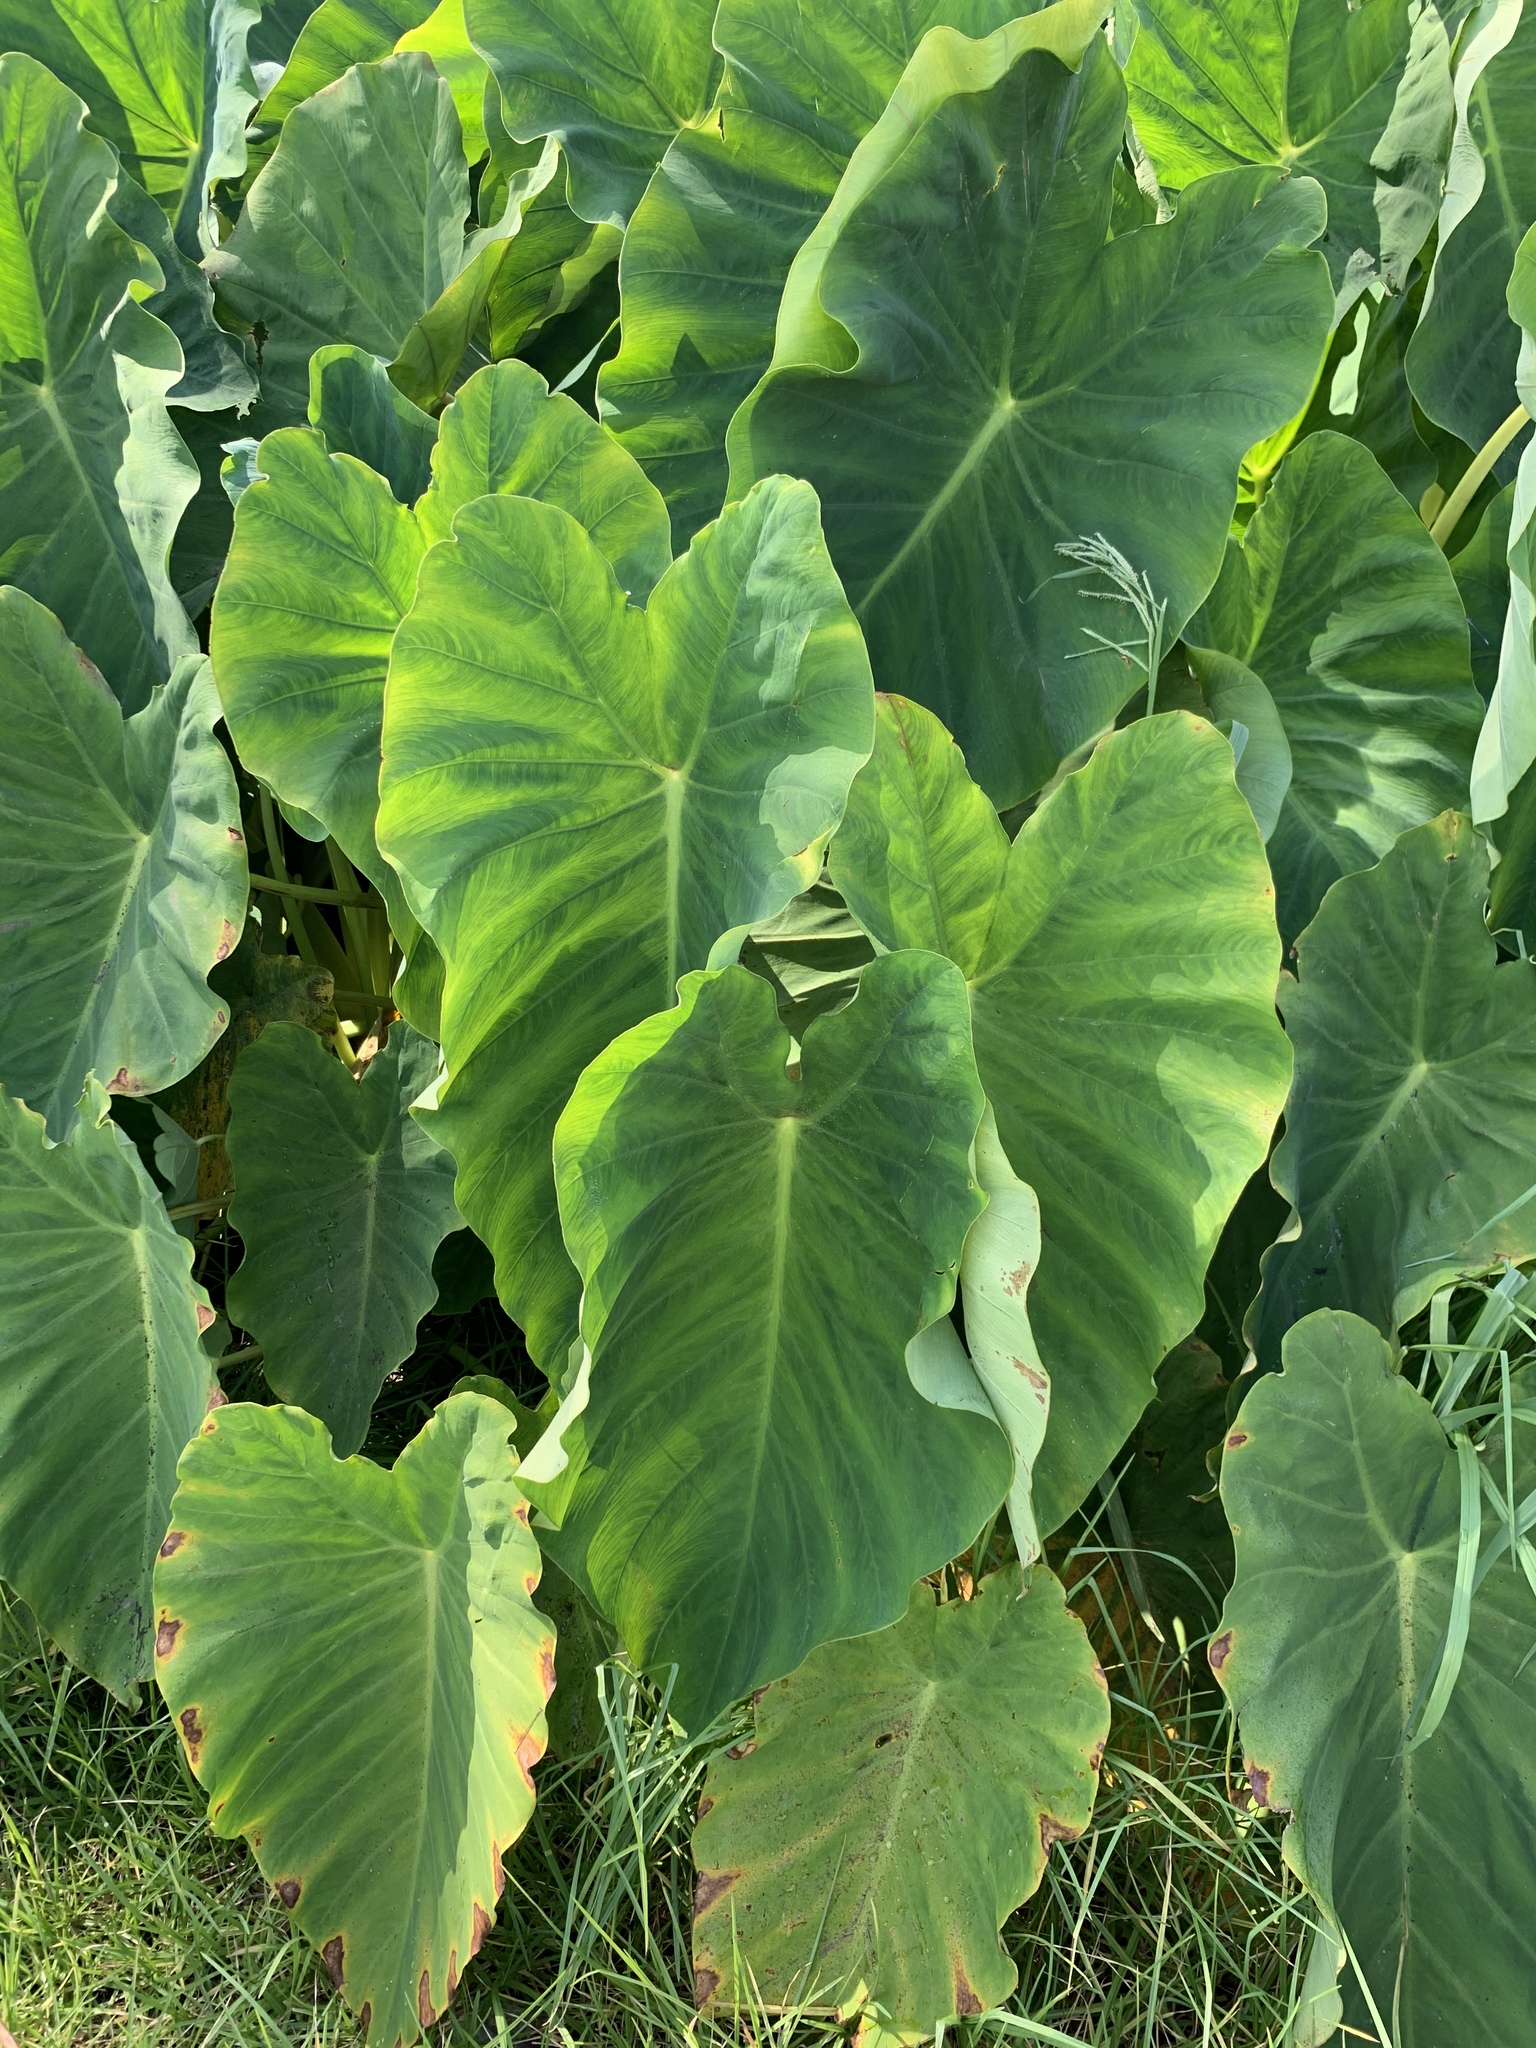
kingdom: Plantae
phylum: Tracheophyta
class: Liliopsida
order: Alismatales
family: Araceae
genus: Colocasia
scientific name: Colocasia esculenta
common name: Taro
